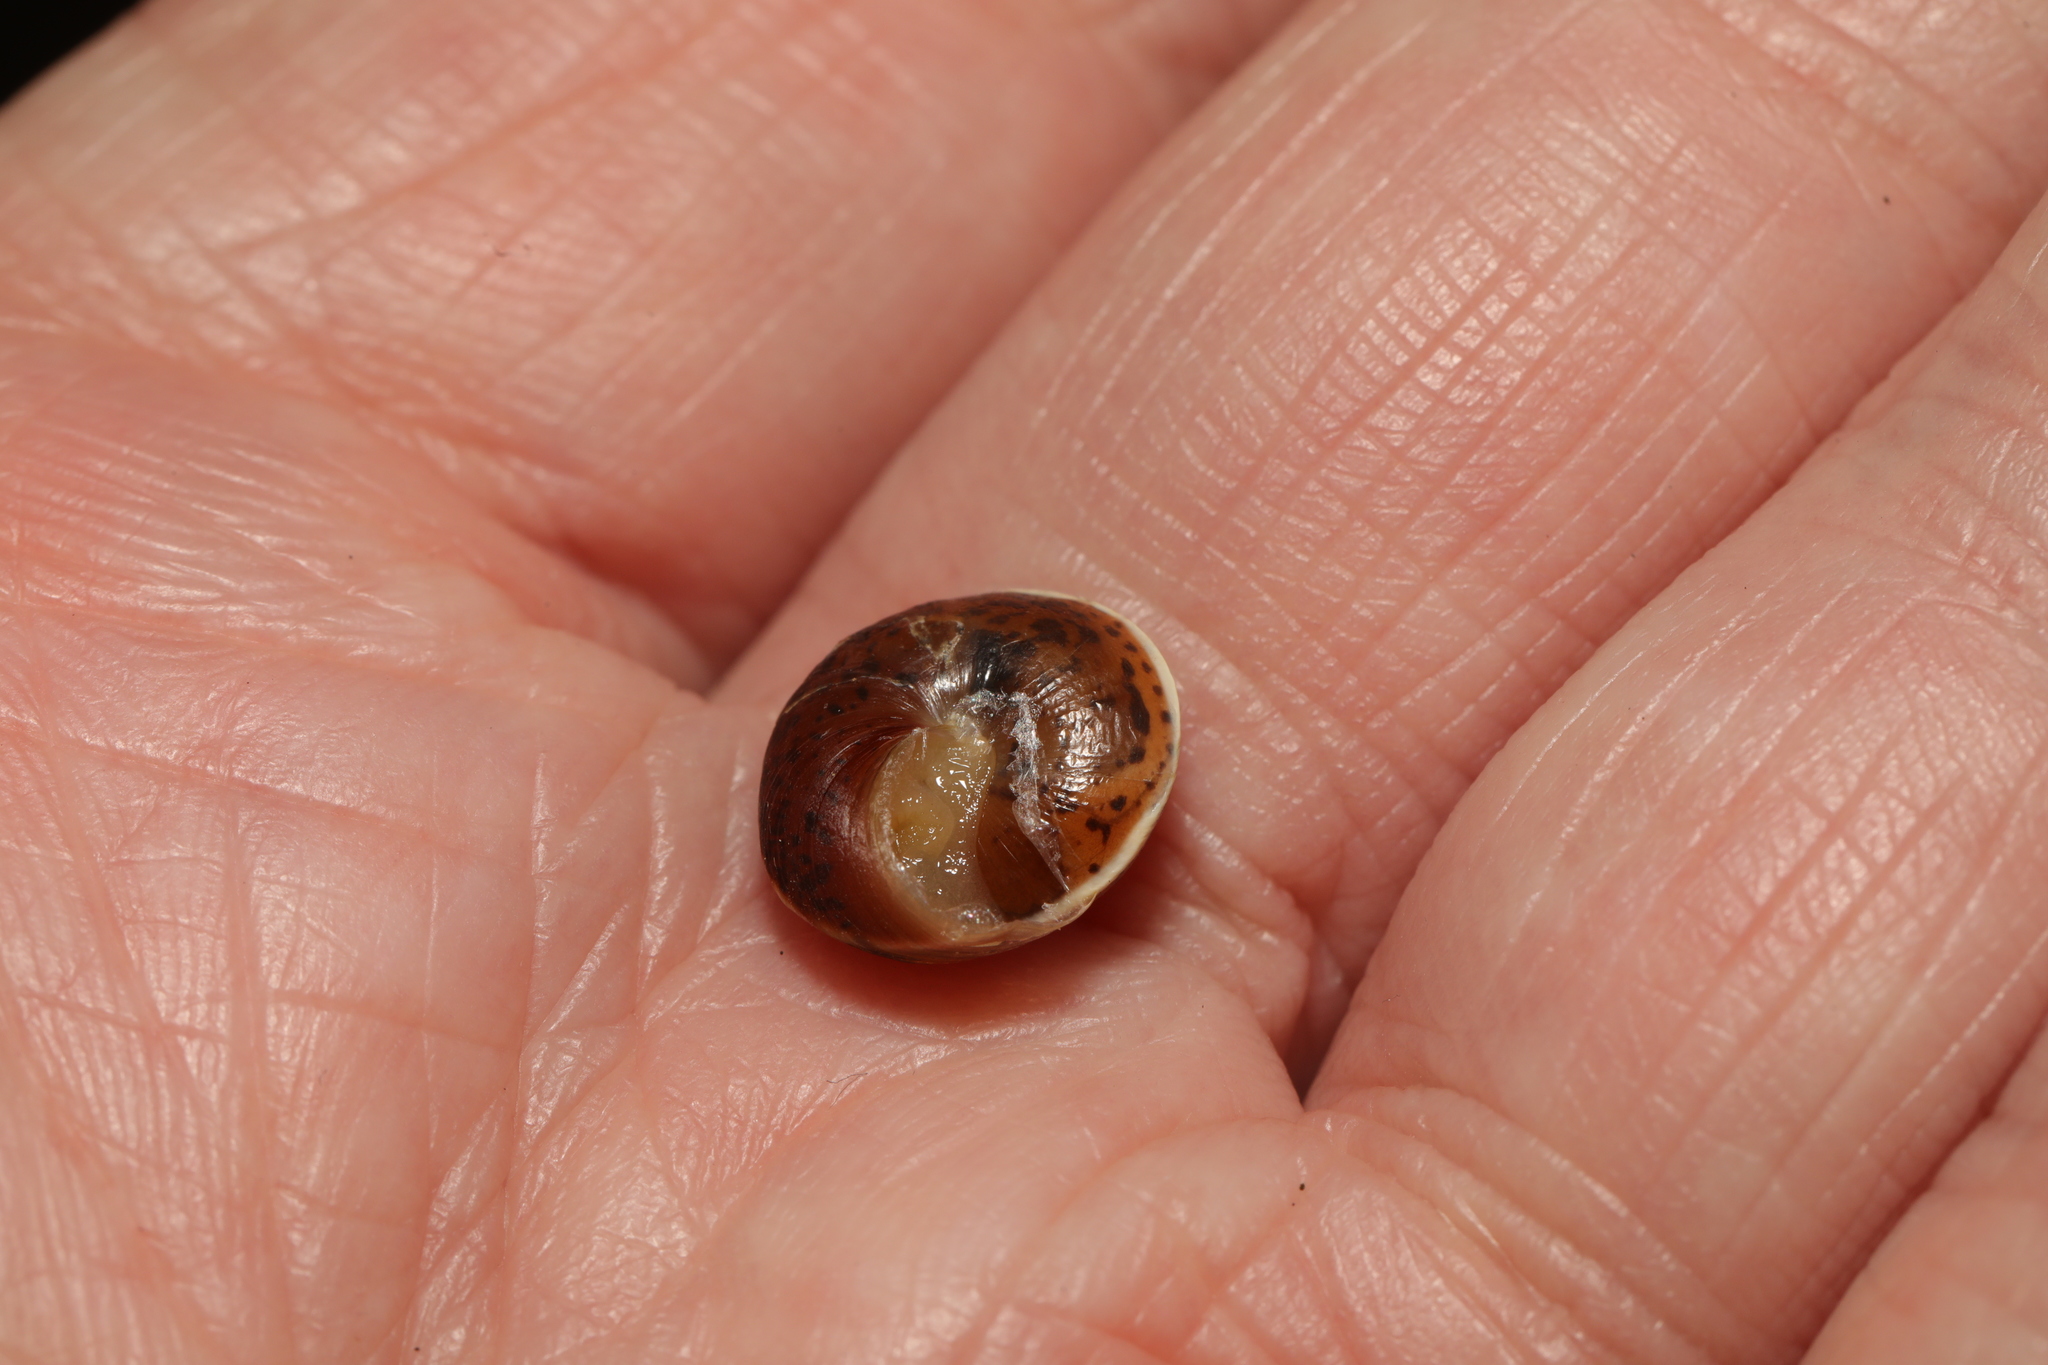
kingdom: Animalia
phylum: Mollusca
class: Gastropoda
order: Stylommatophora
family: Hygromiidae
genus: Hygromia
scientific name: Hygromia cinctella
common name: Girdled snail
